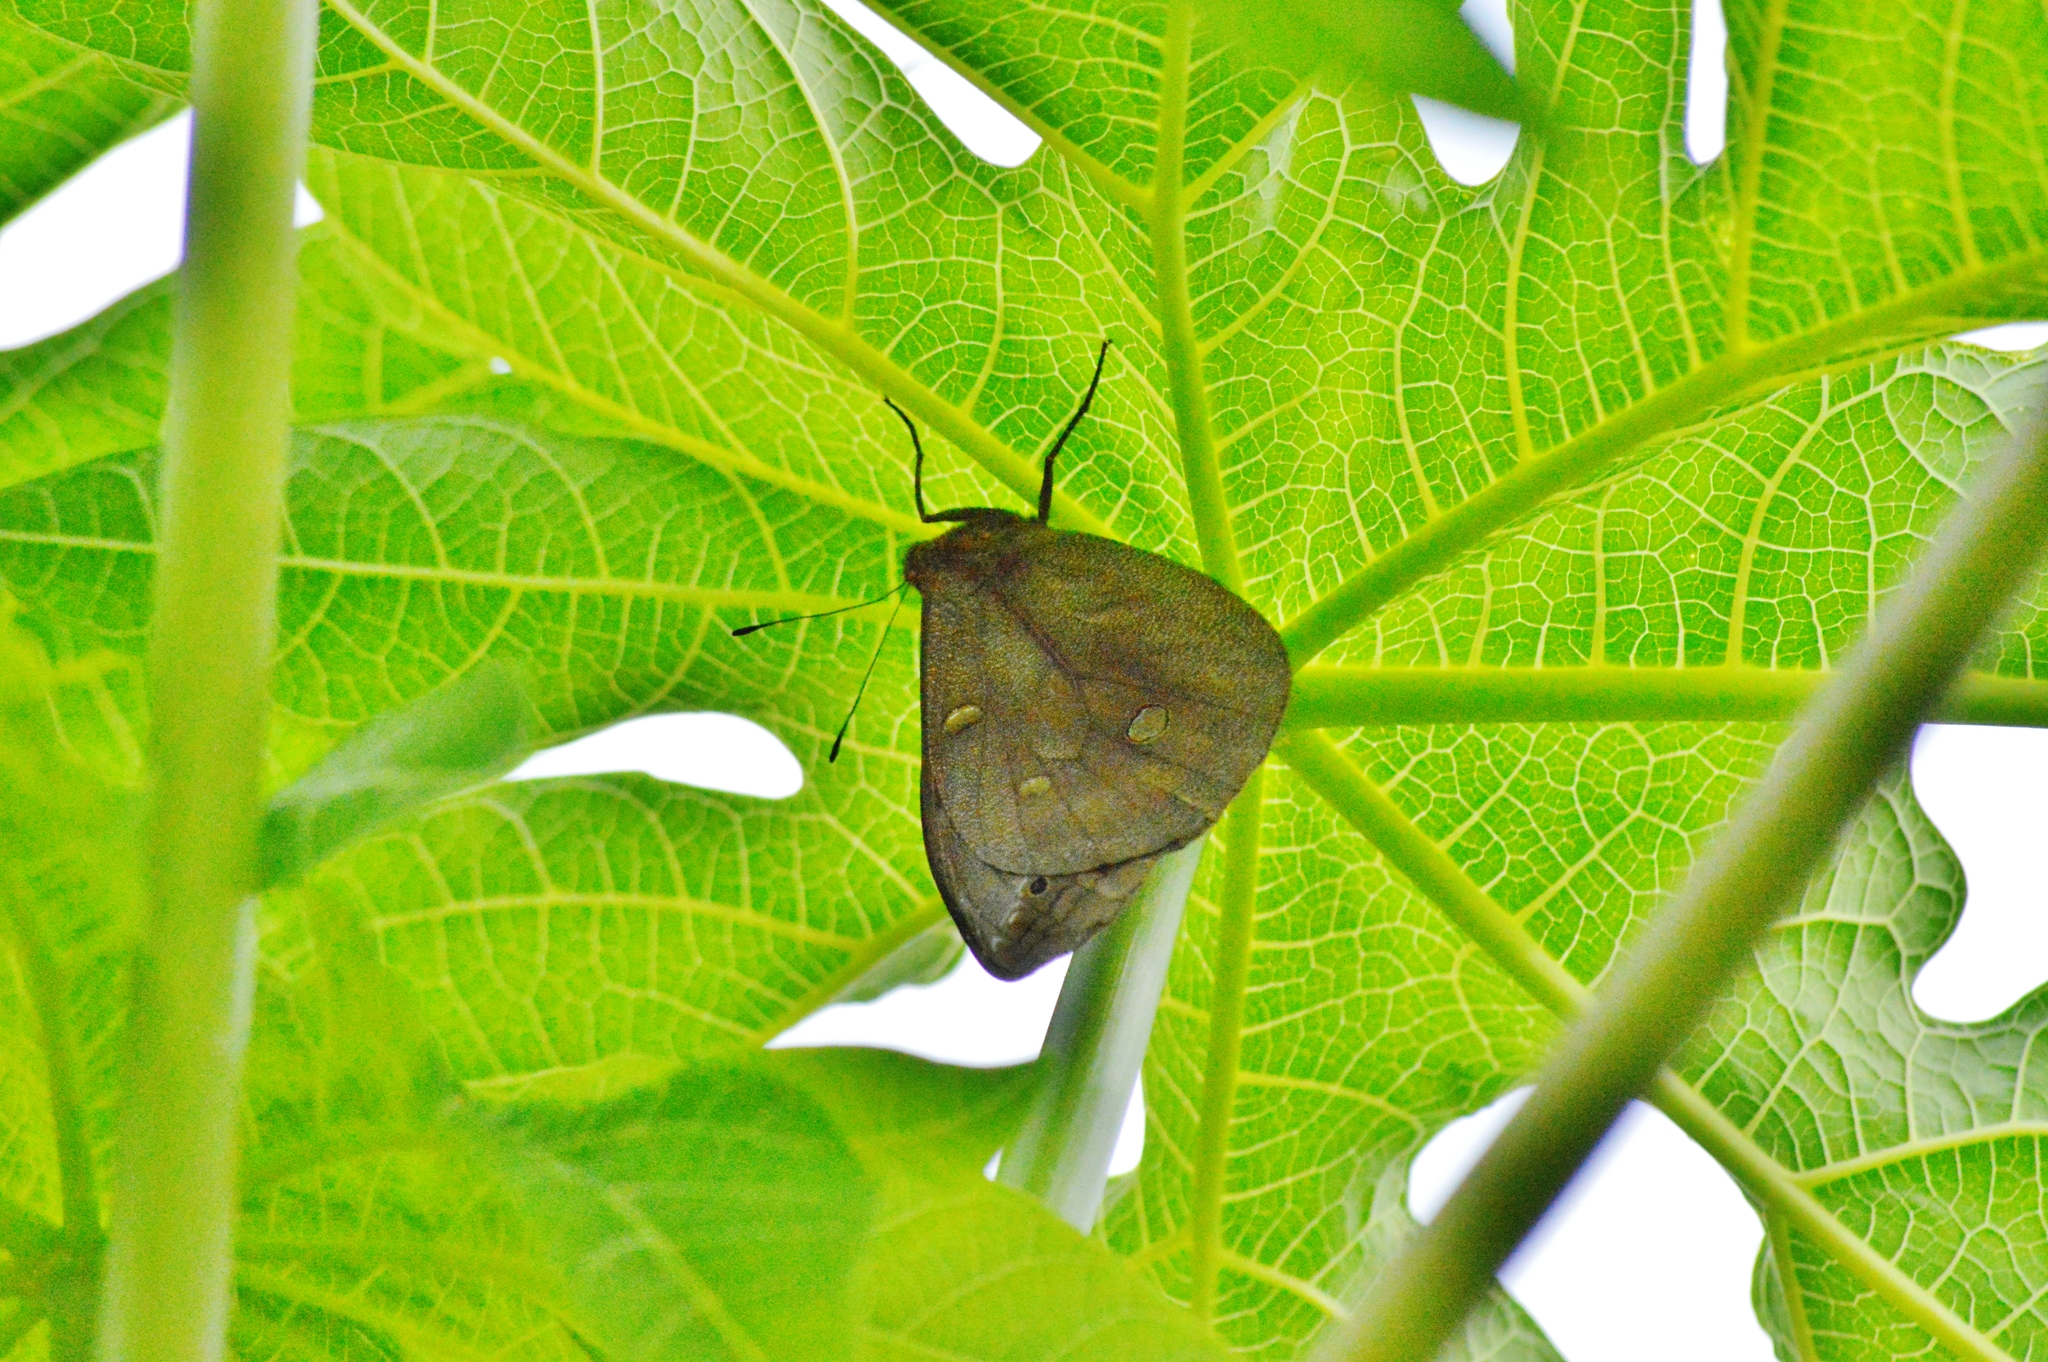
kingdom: Animalia
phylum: Arthropoda
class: Insecta
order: Lepidoptera
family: Nymphalidae
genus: Brassolis
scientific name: Brassolis sophorae
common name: Coconut caterpillar
